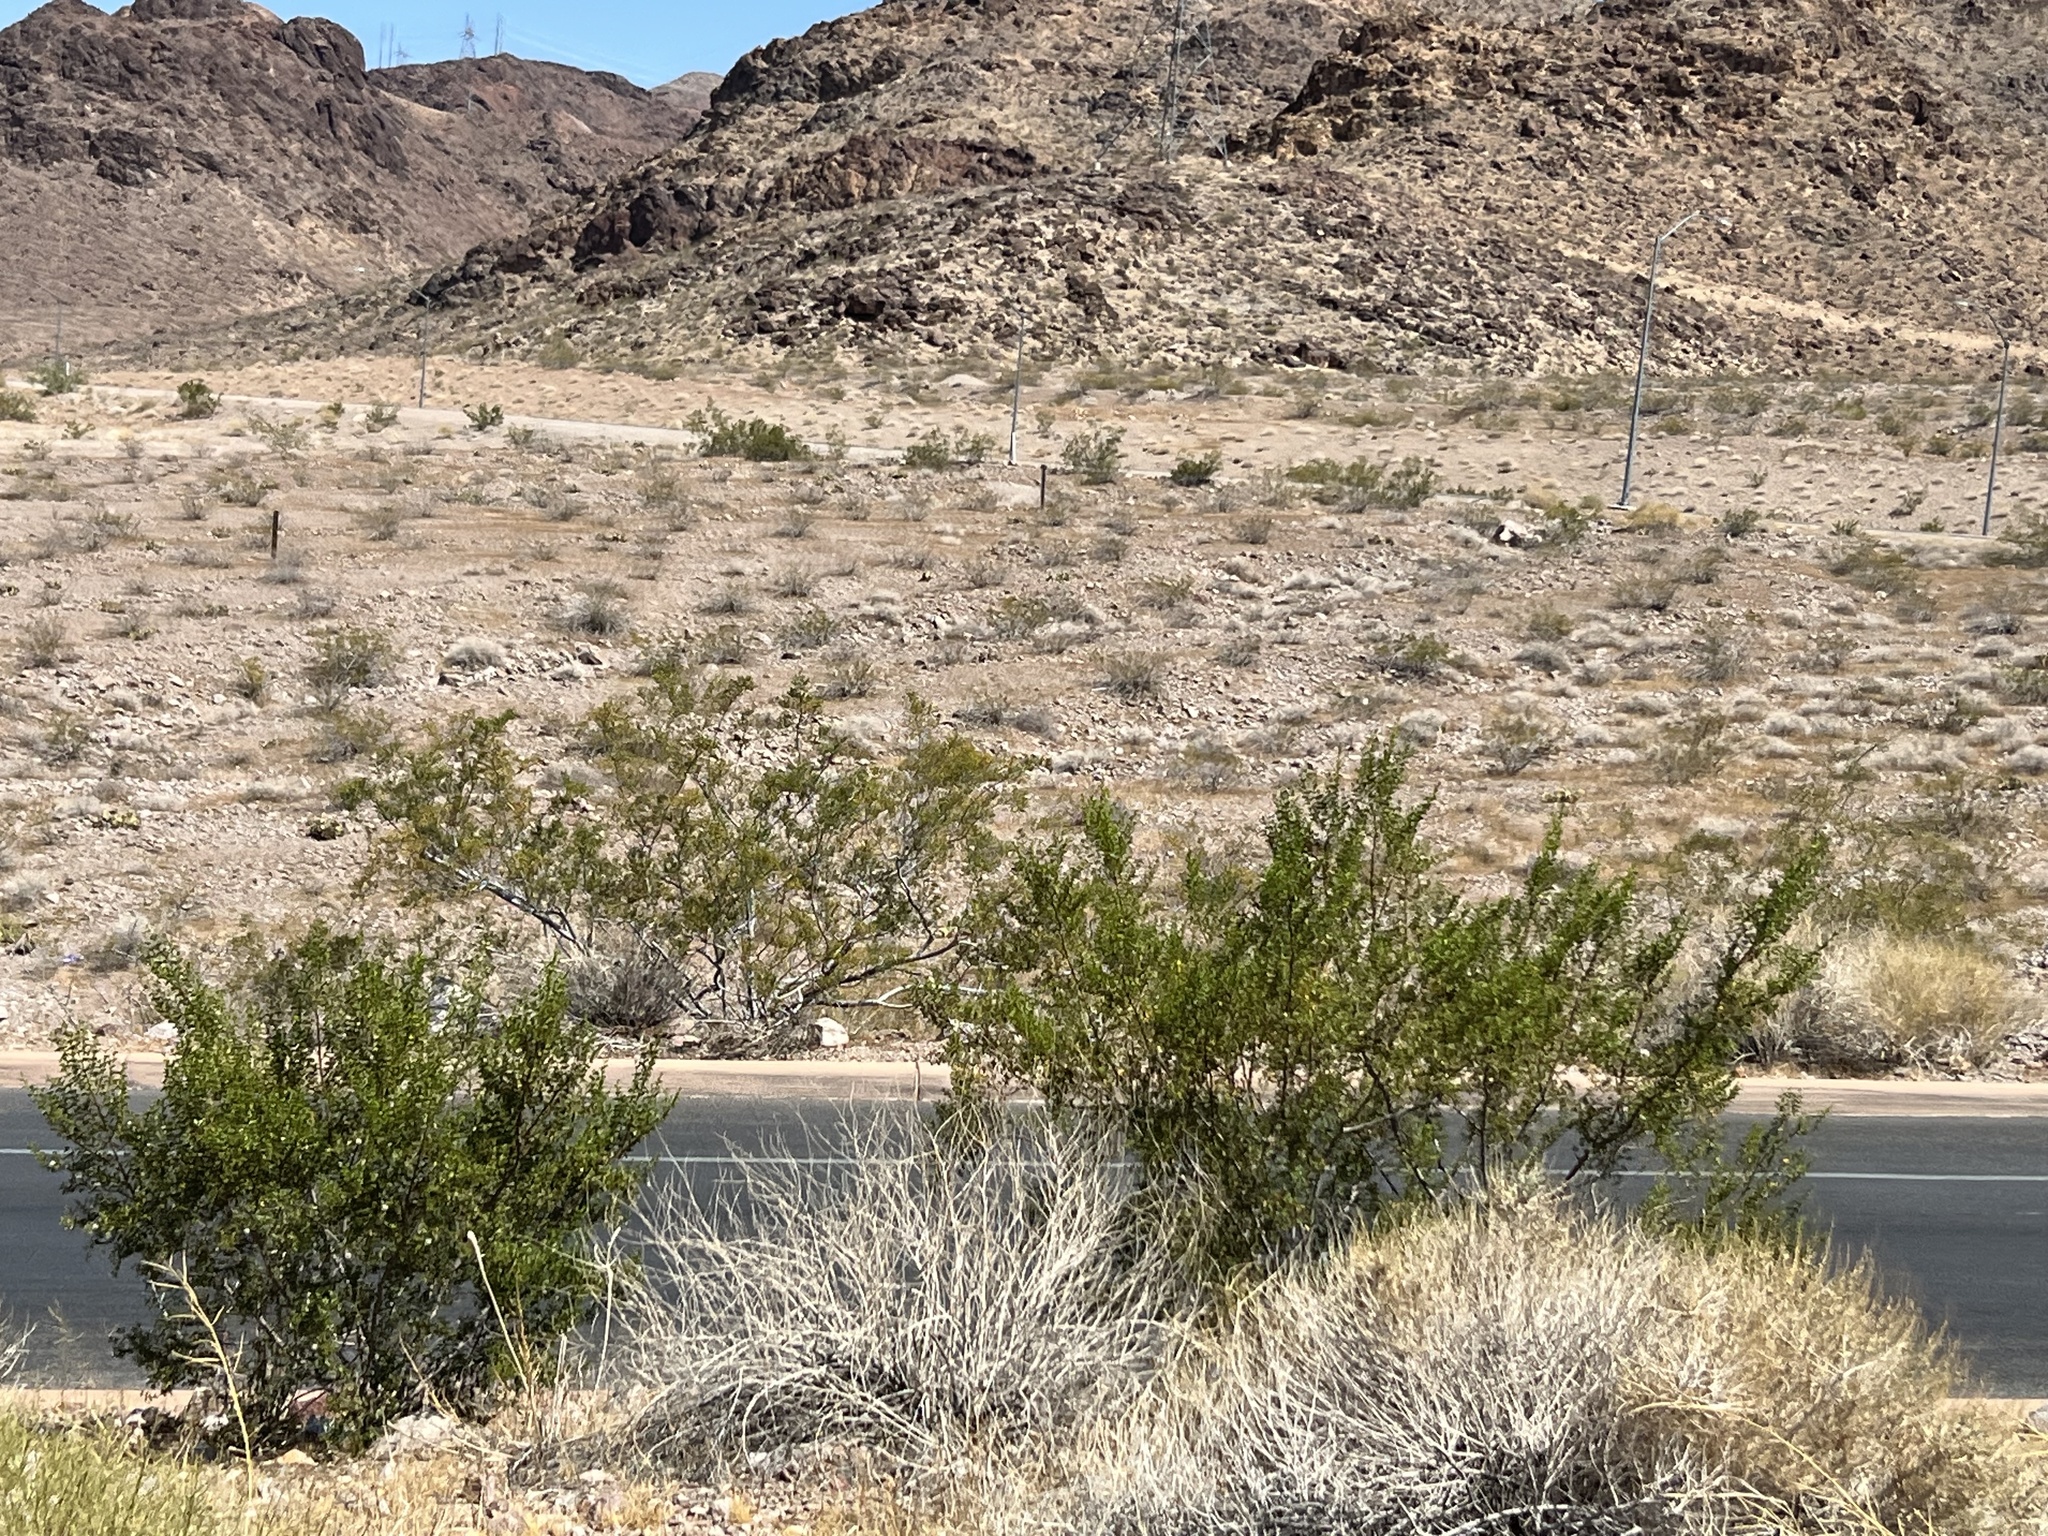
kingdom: Plantae
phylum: Tracheophyta
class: Magnoliopsida
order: Zygophyllales
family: Zygophyllaceae
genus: Larrea
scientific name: Larrea tridentata
